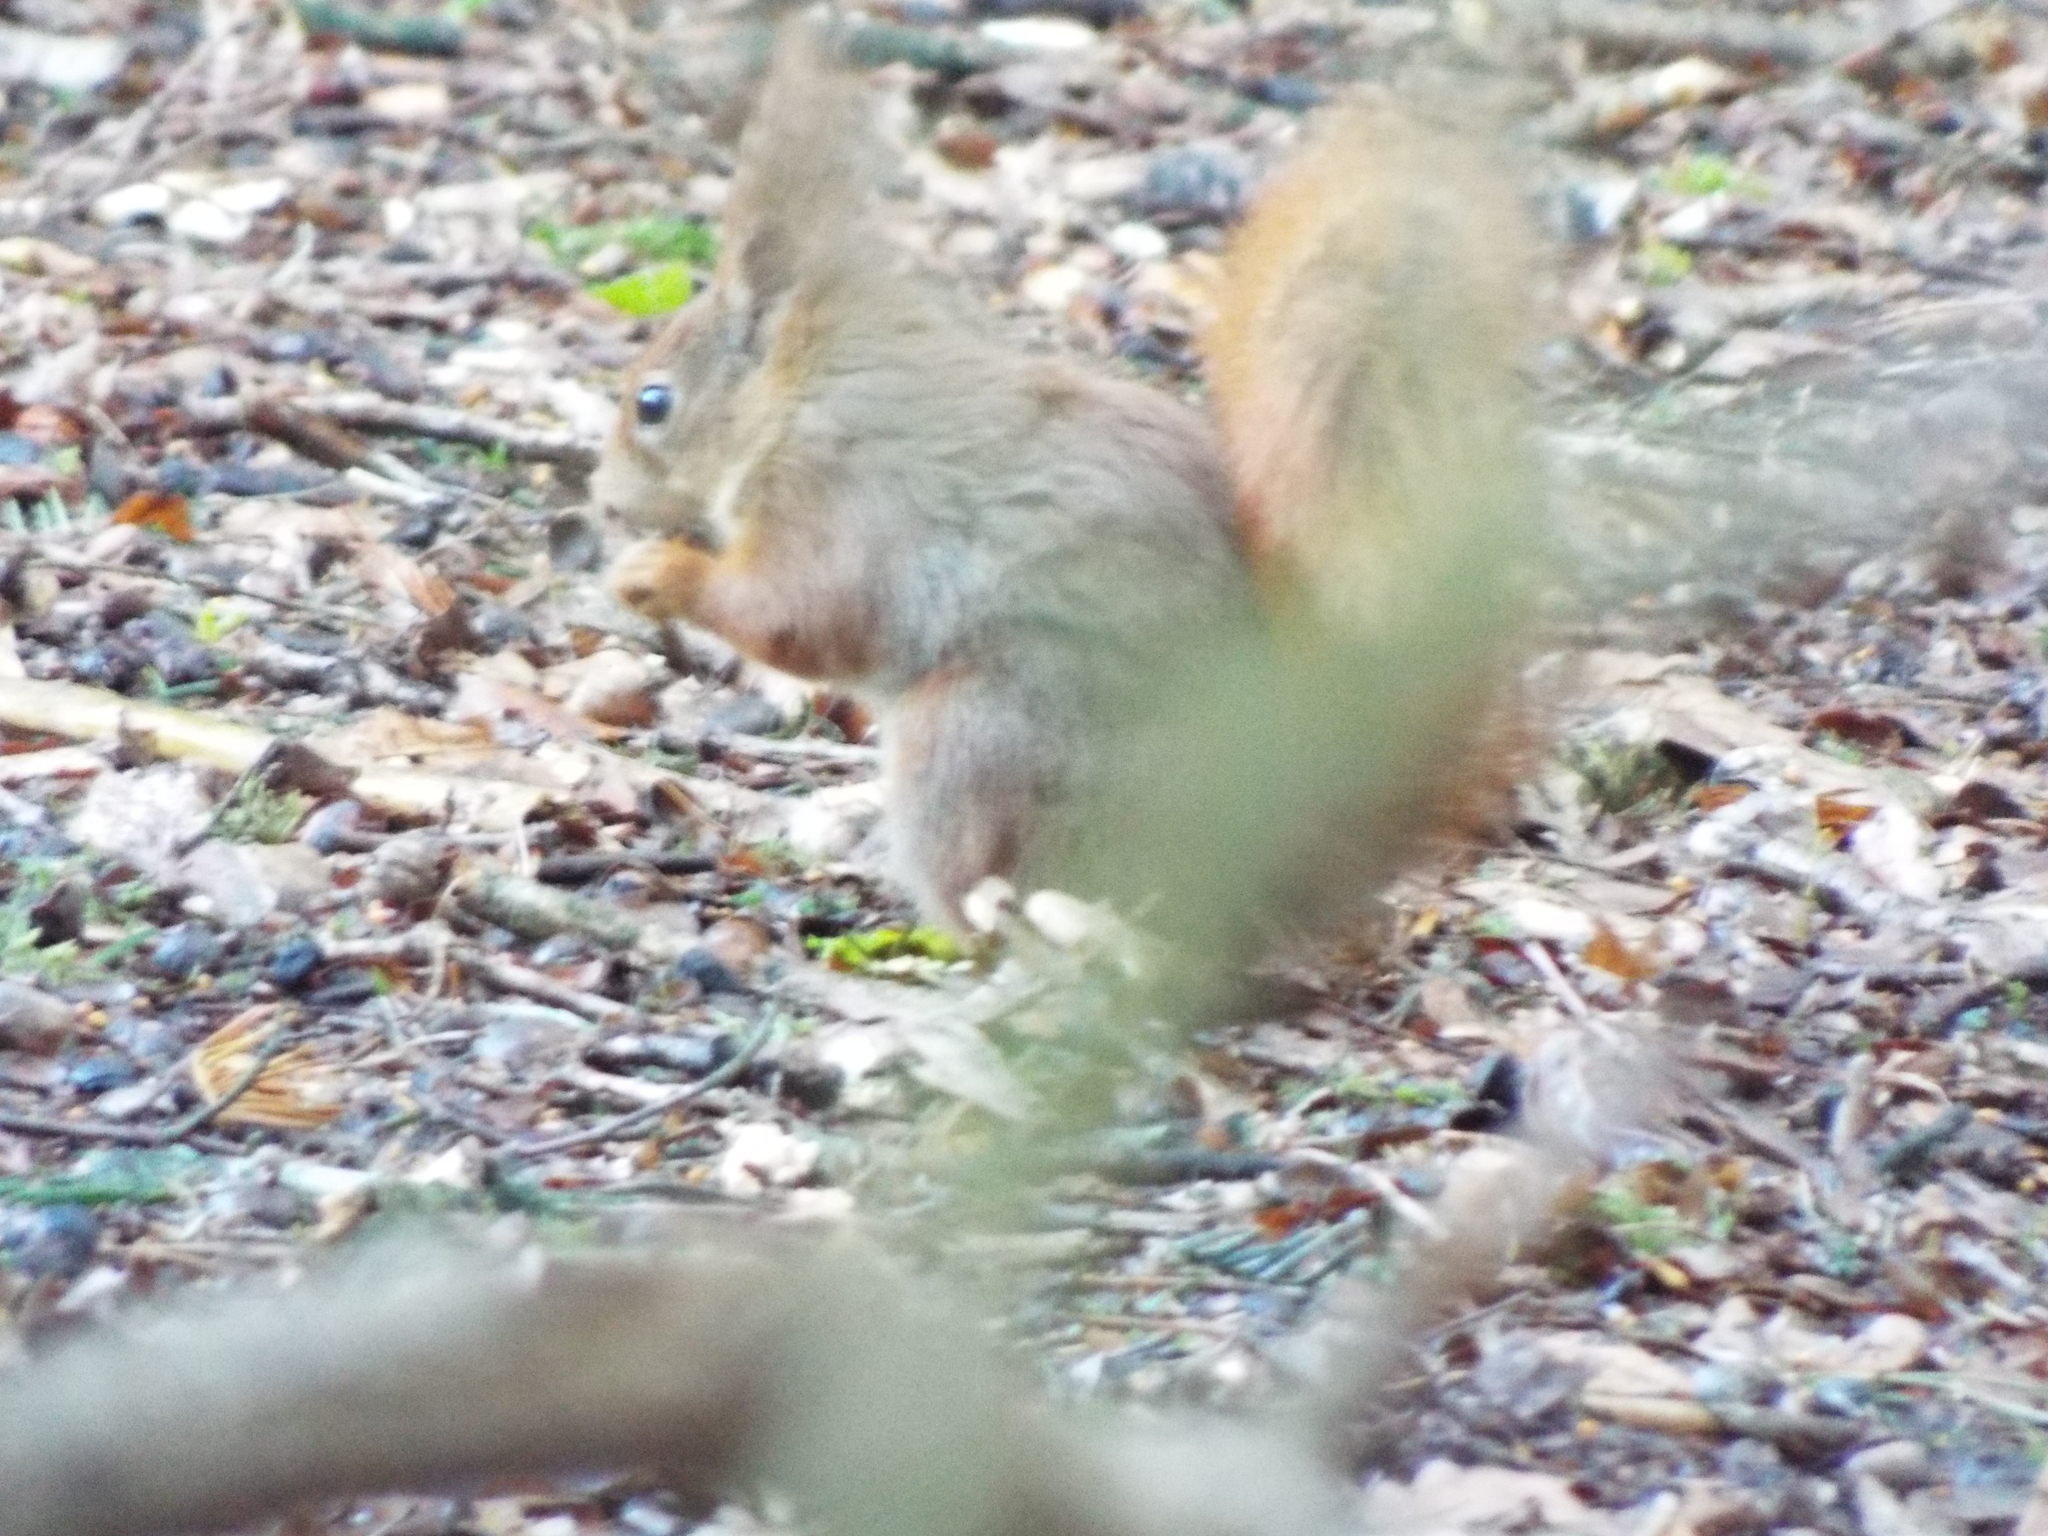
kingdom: Animalia
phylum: Chordata
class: Mammalia
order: Rodentia
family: Sciuridae
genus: Sciurus
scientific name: Sciurus vulgaris
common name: Eurasian red squirrel
